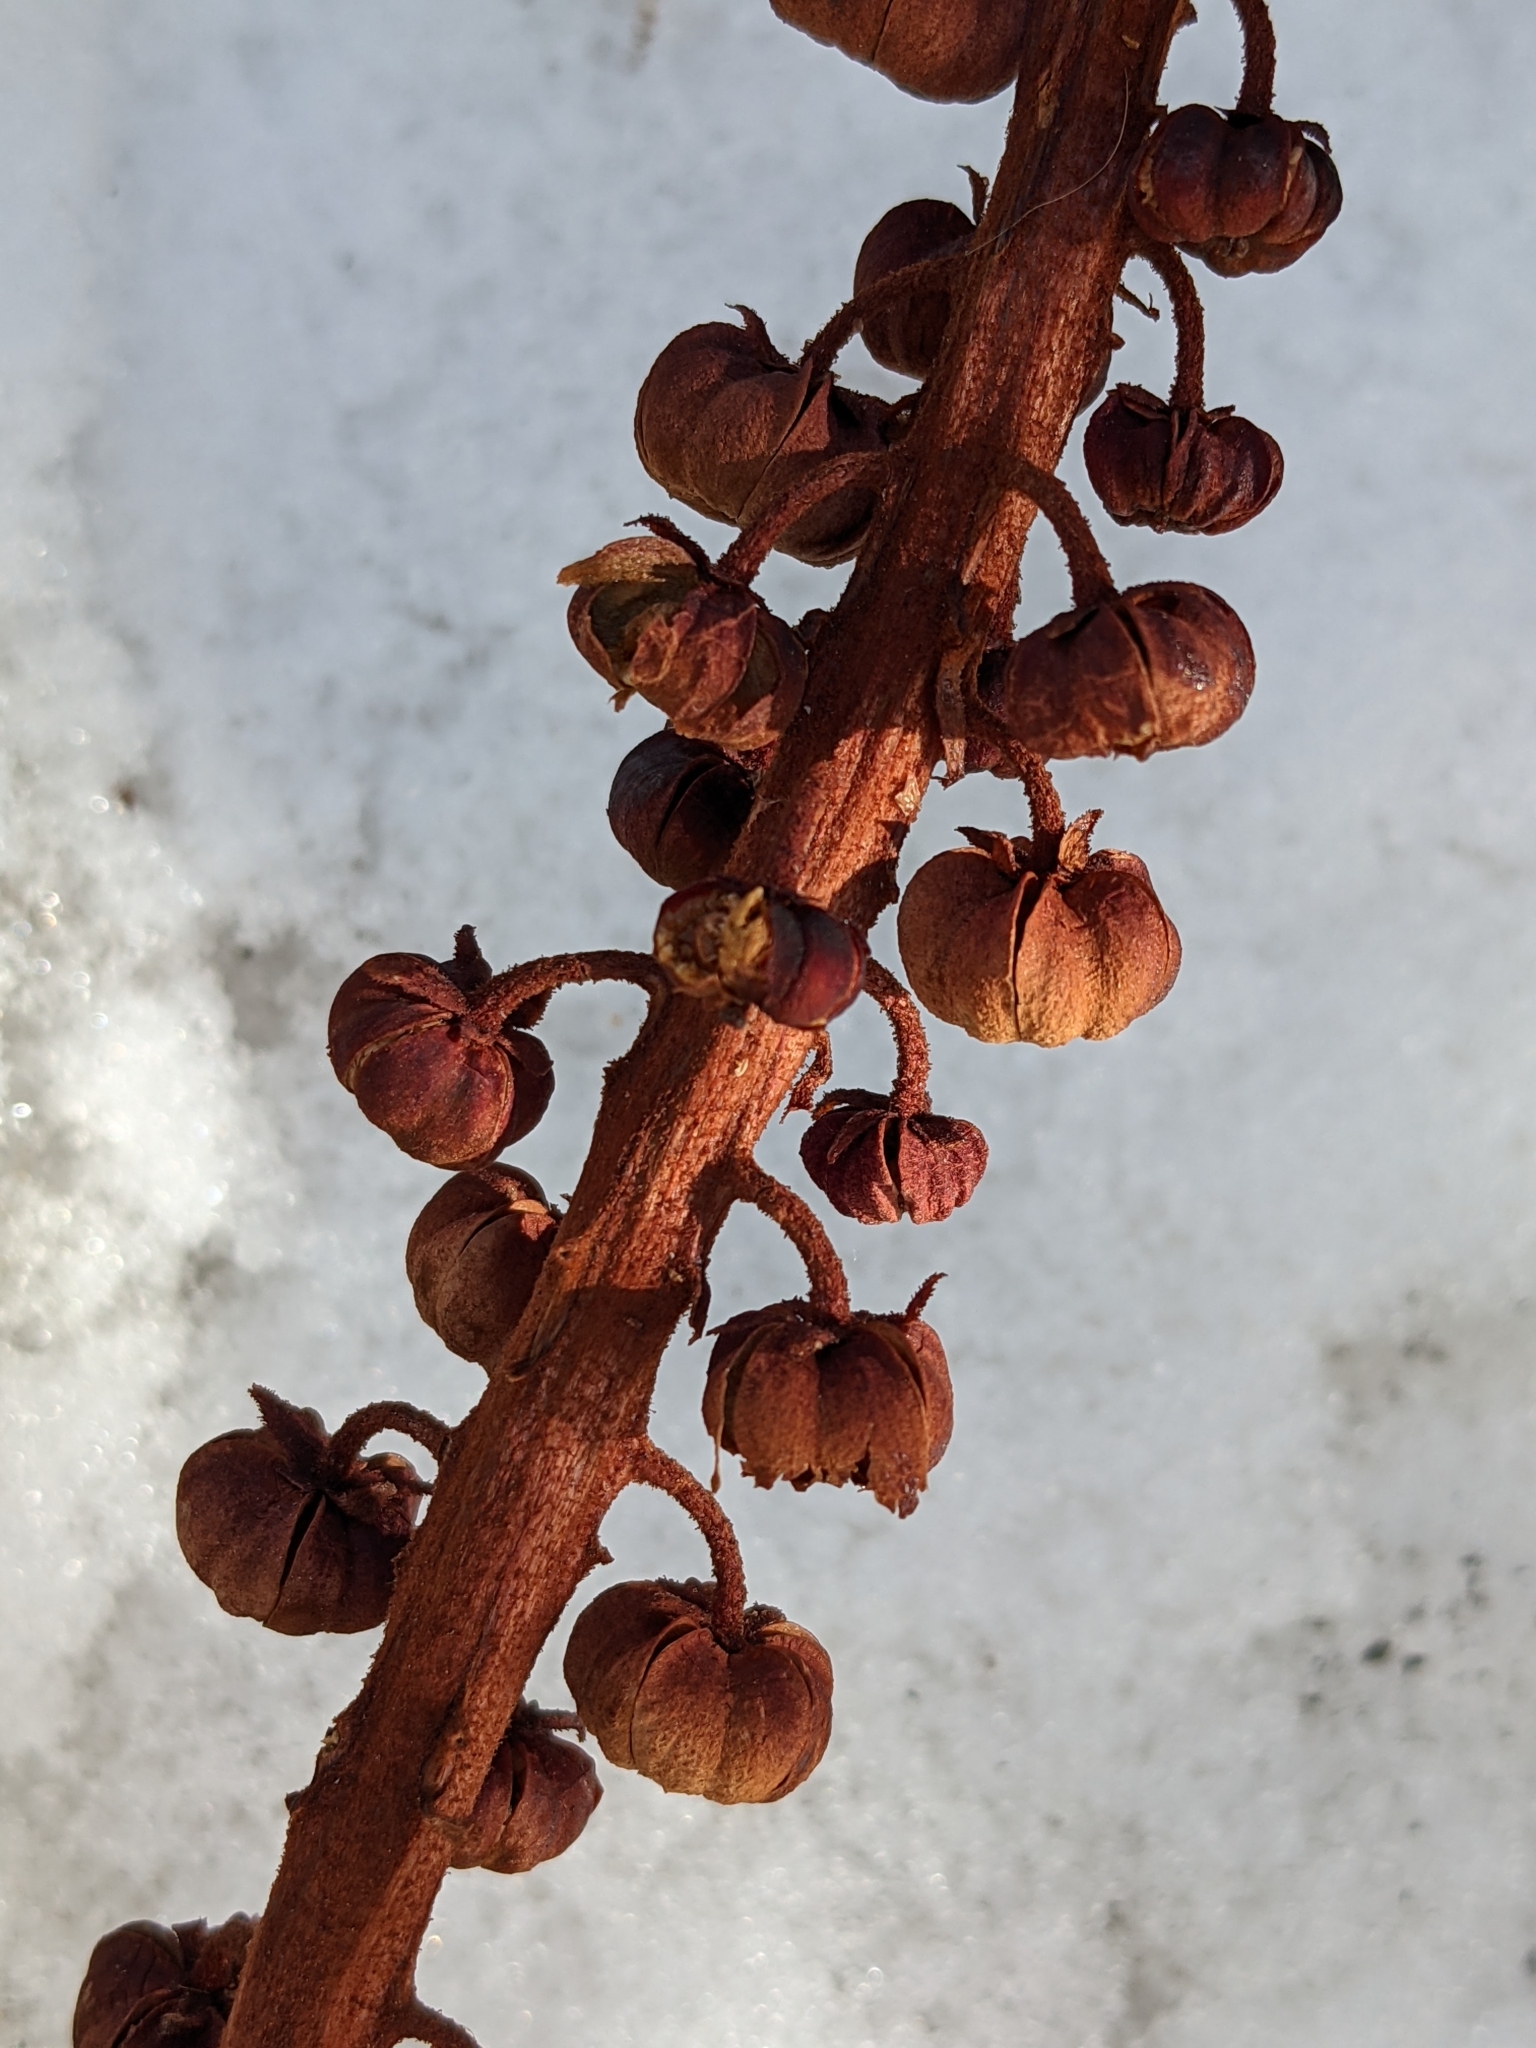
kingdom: Plantae
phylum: Tracheophyta
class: Magnoliopsida
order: Ericales
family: Ericaceae
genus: Pterospora
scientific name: Pterospora andromedea
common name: Giant bird's-nest
